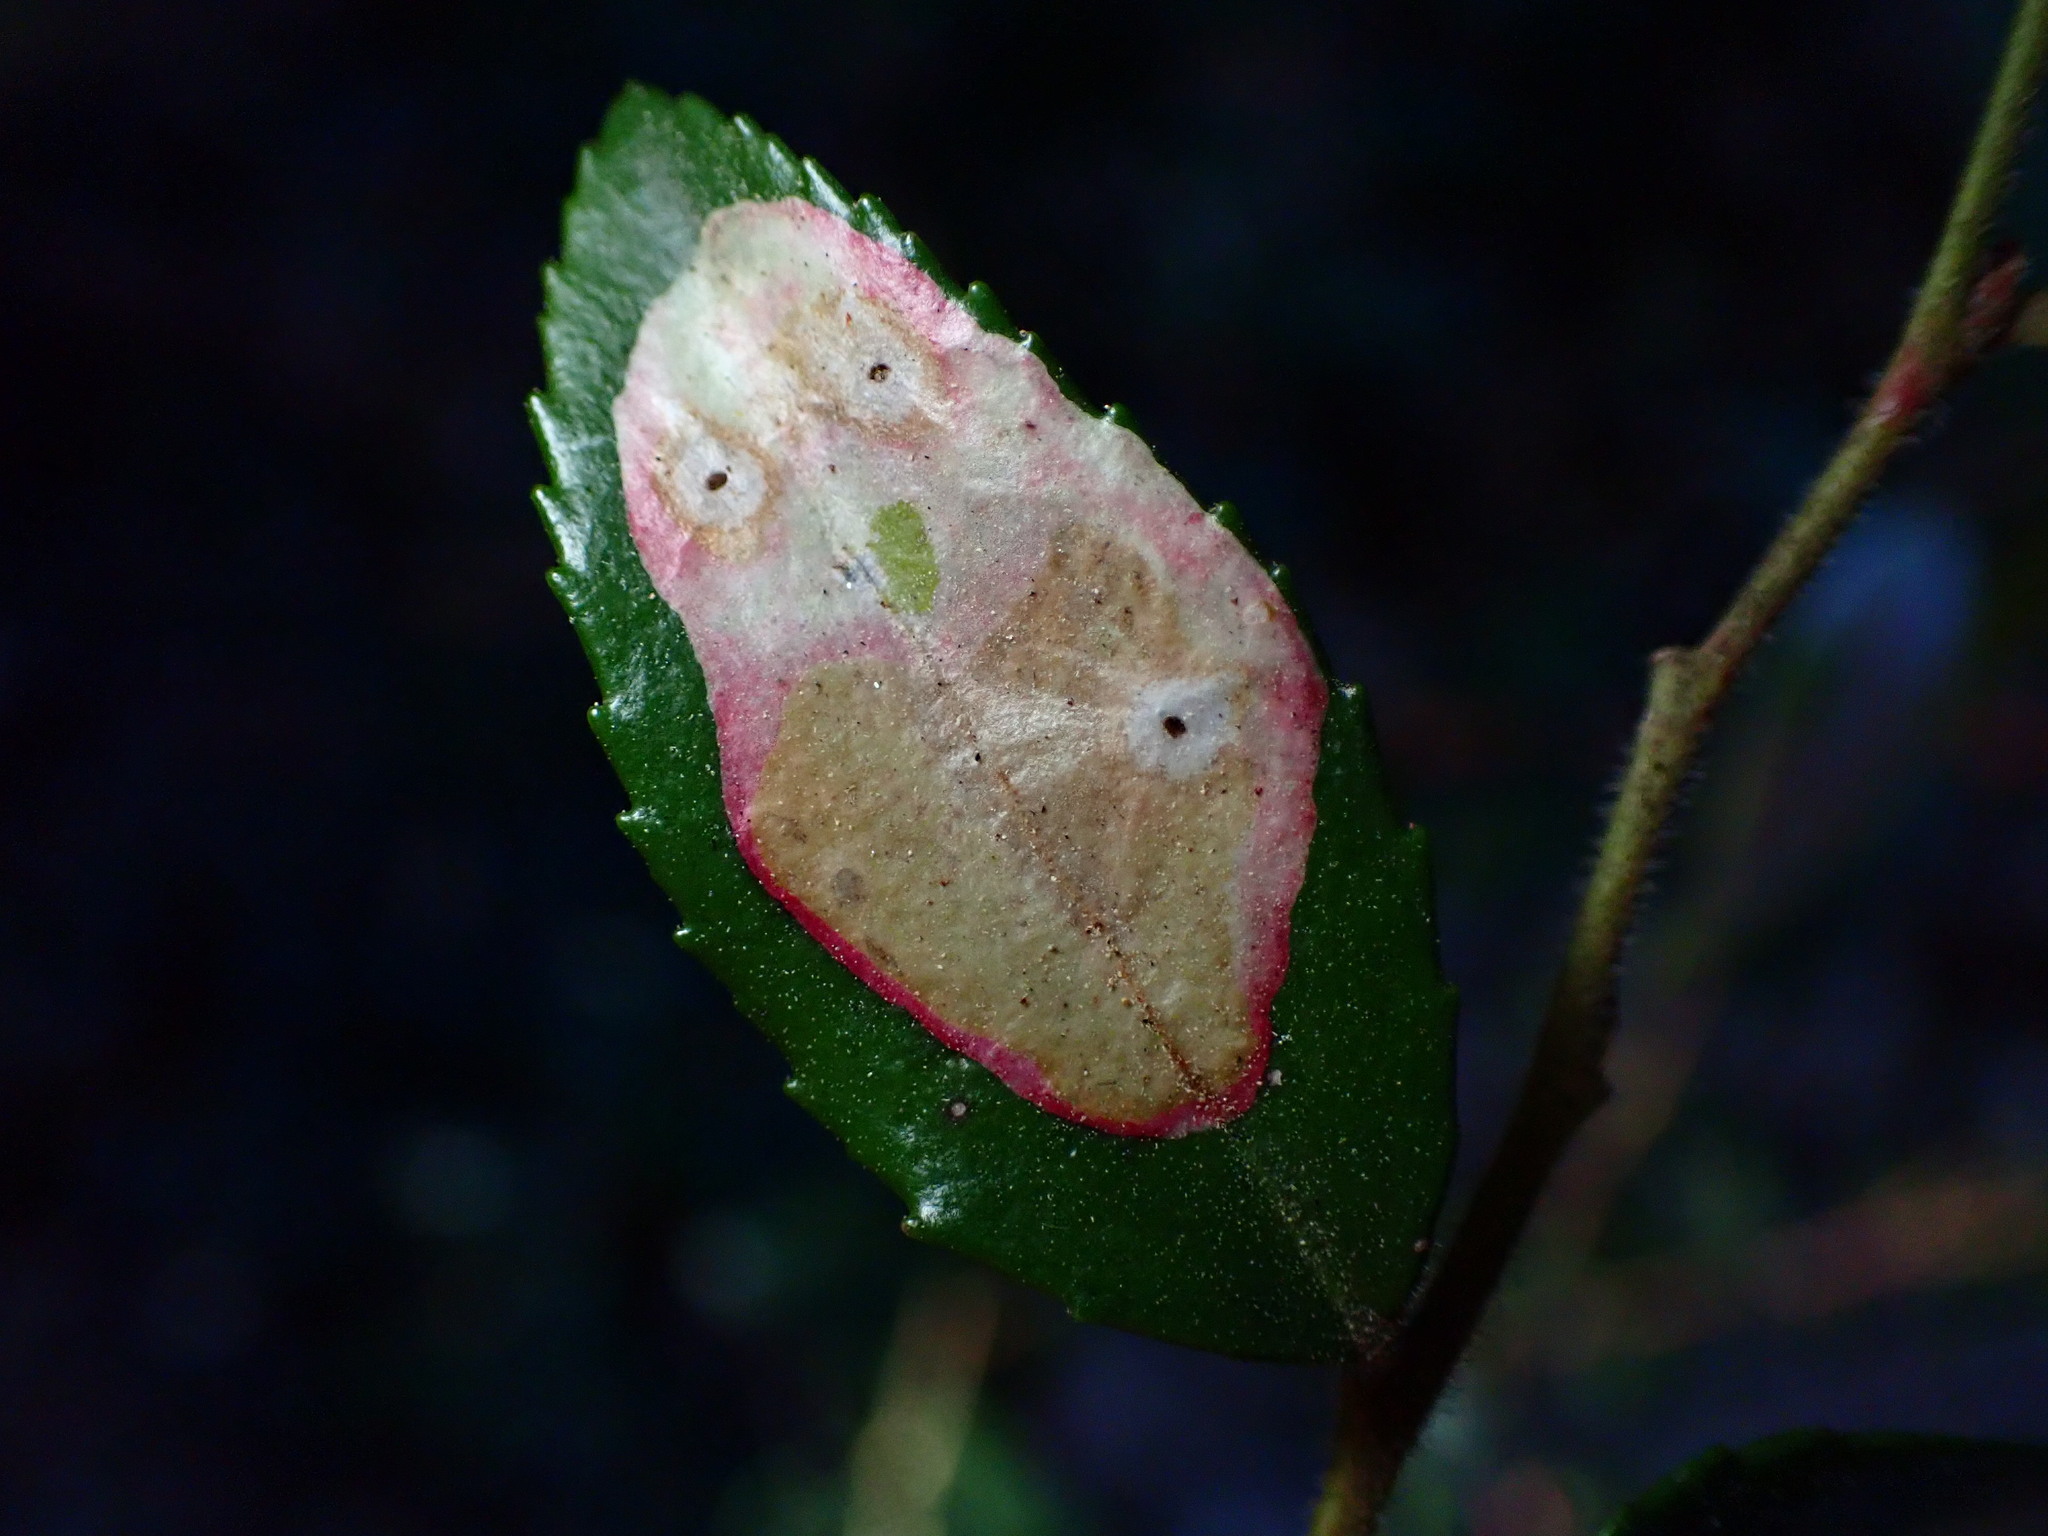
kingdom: Animalia
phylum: Arthropoda
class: Insecta
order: Lepidoptera
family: Gracillariidae
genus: Cameraria
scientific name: Cameraria nemoris
